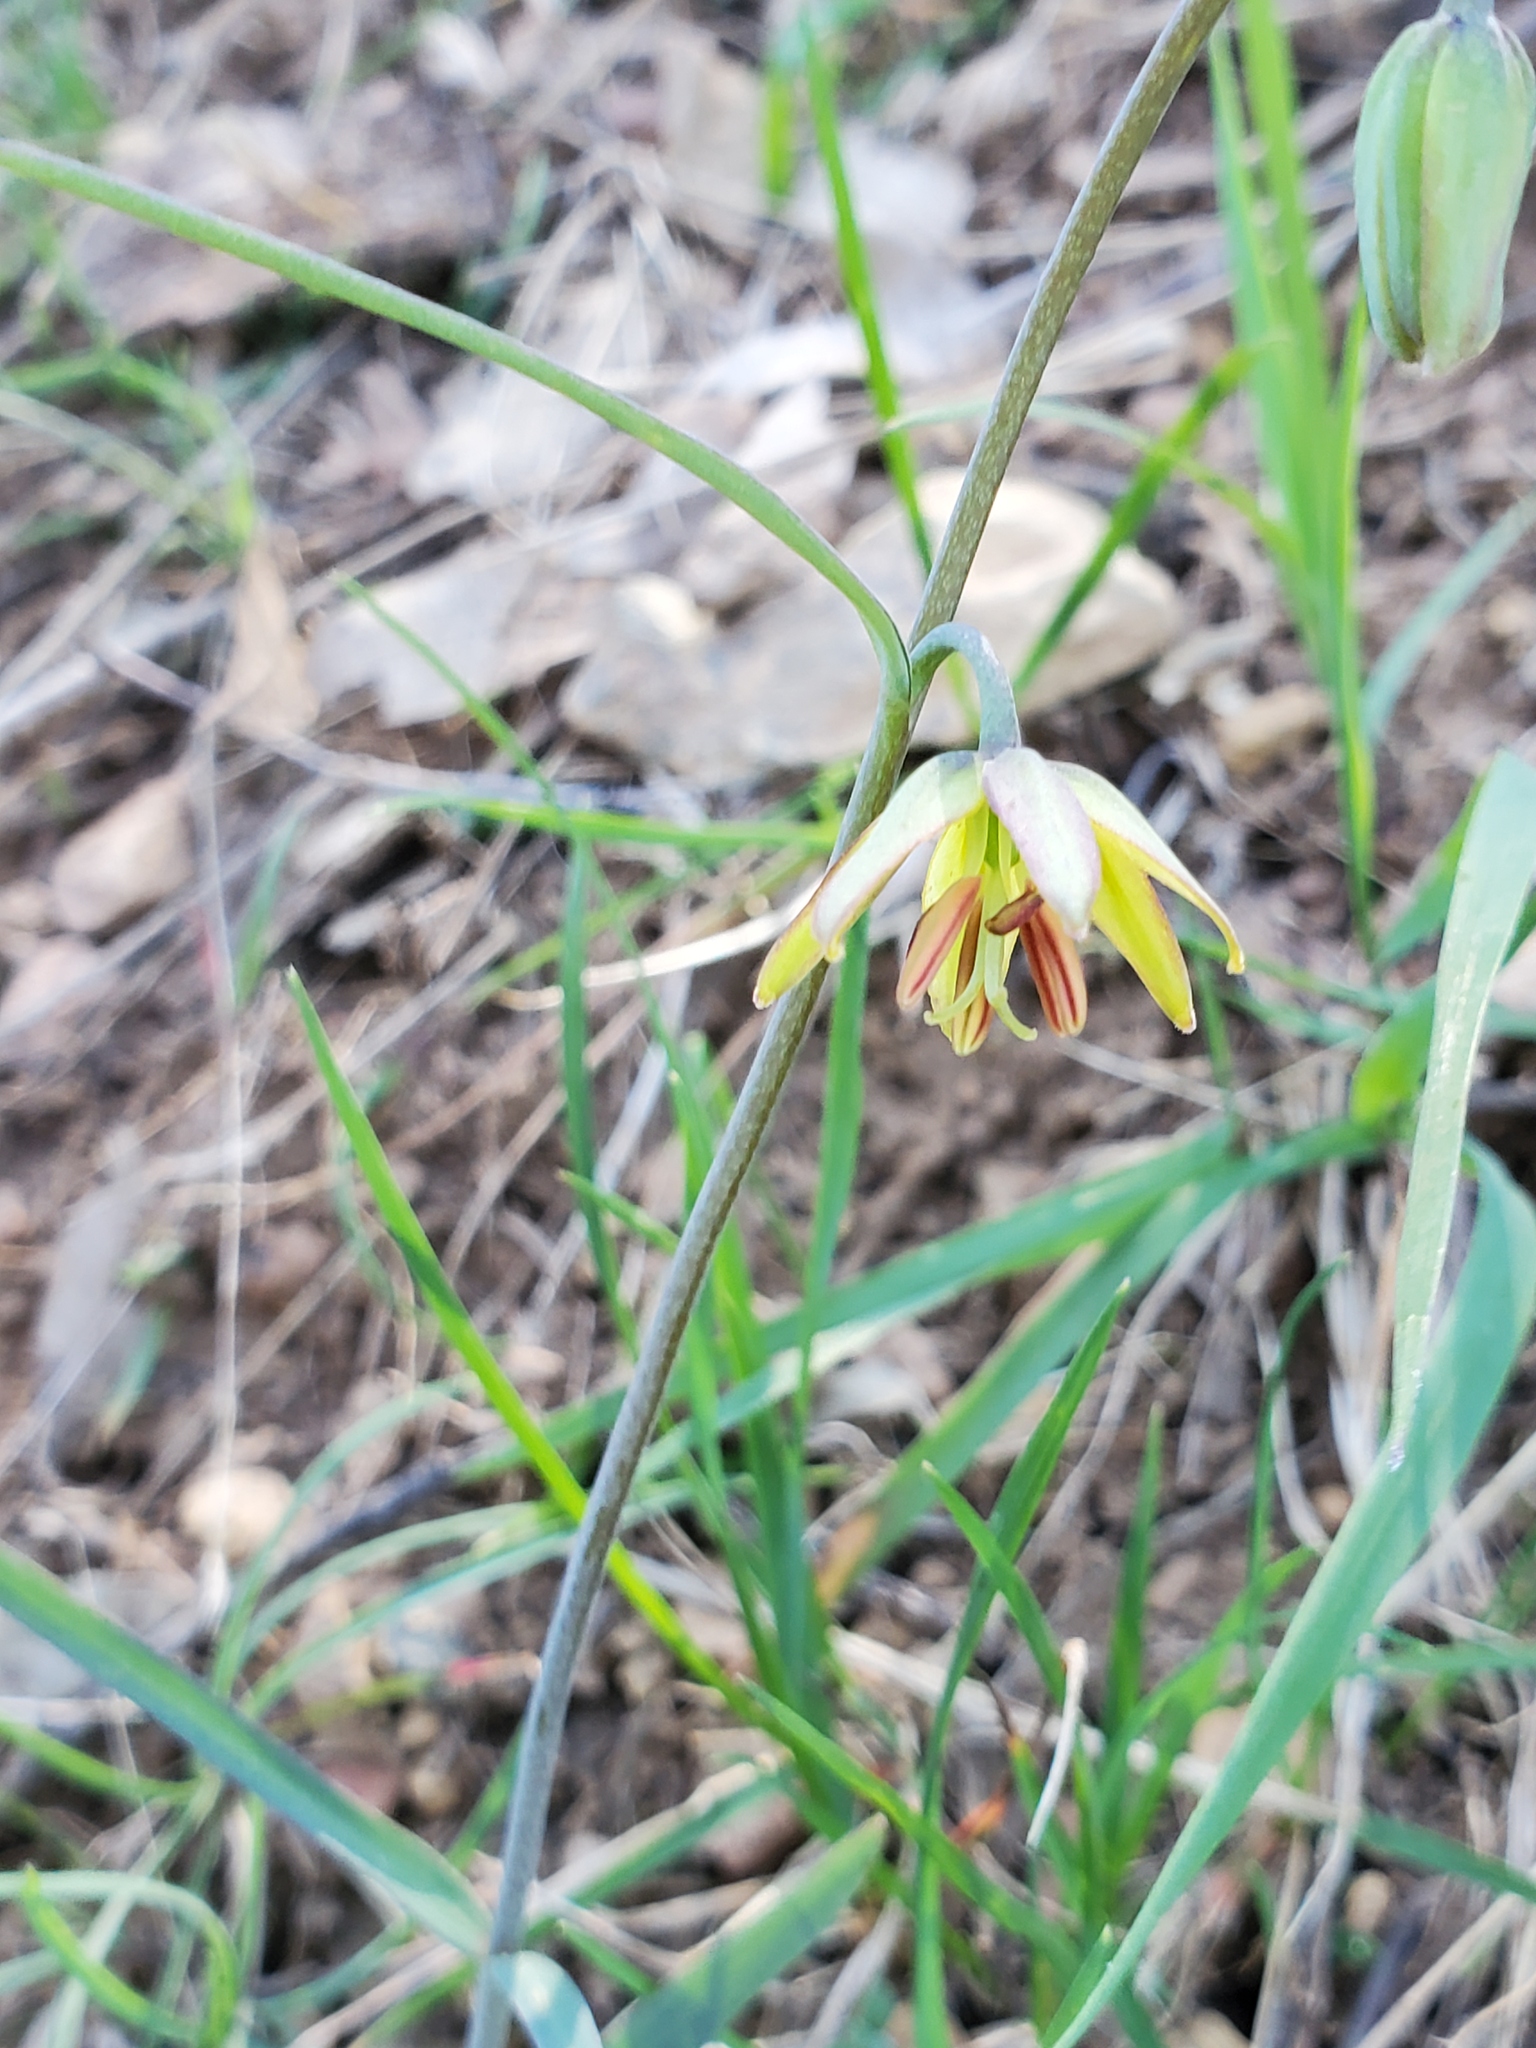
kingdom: Plantae
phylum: Tracheophyta
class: Liliopsida
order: Liliales
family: Liliaceae
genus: Fritillaria
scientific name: Fritillaria micrantha
